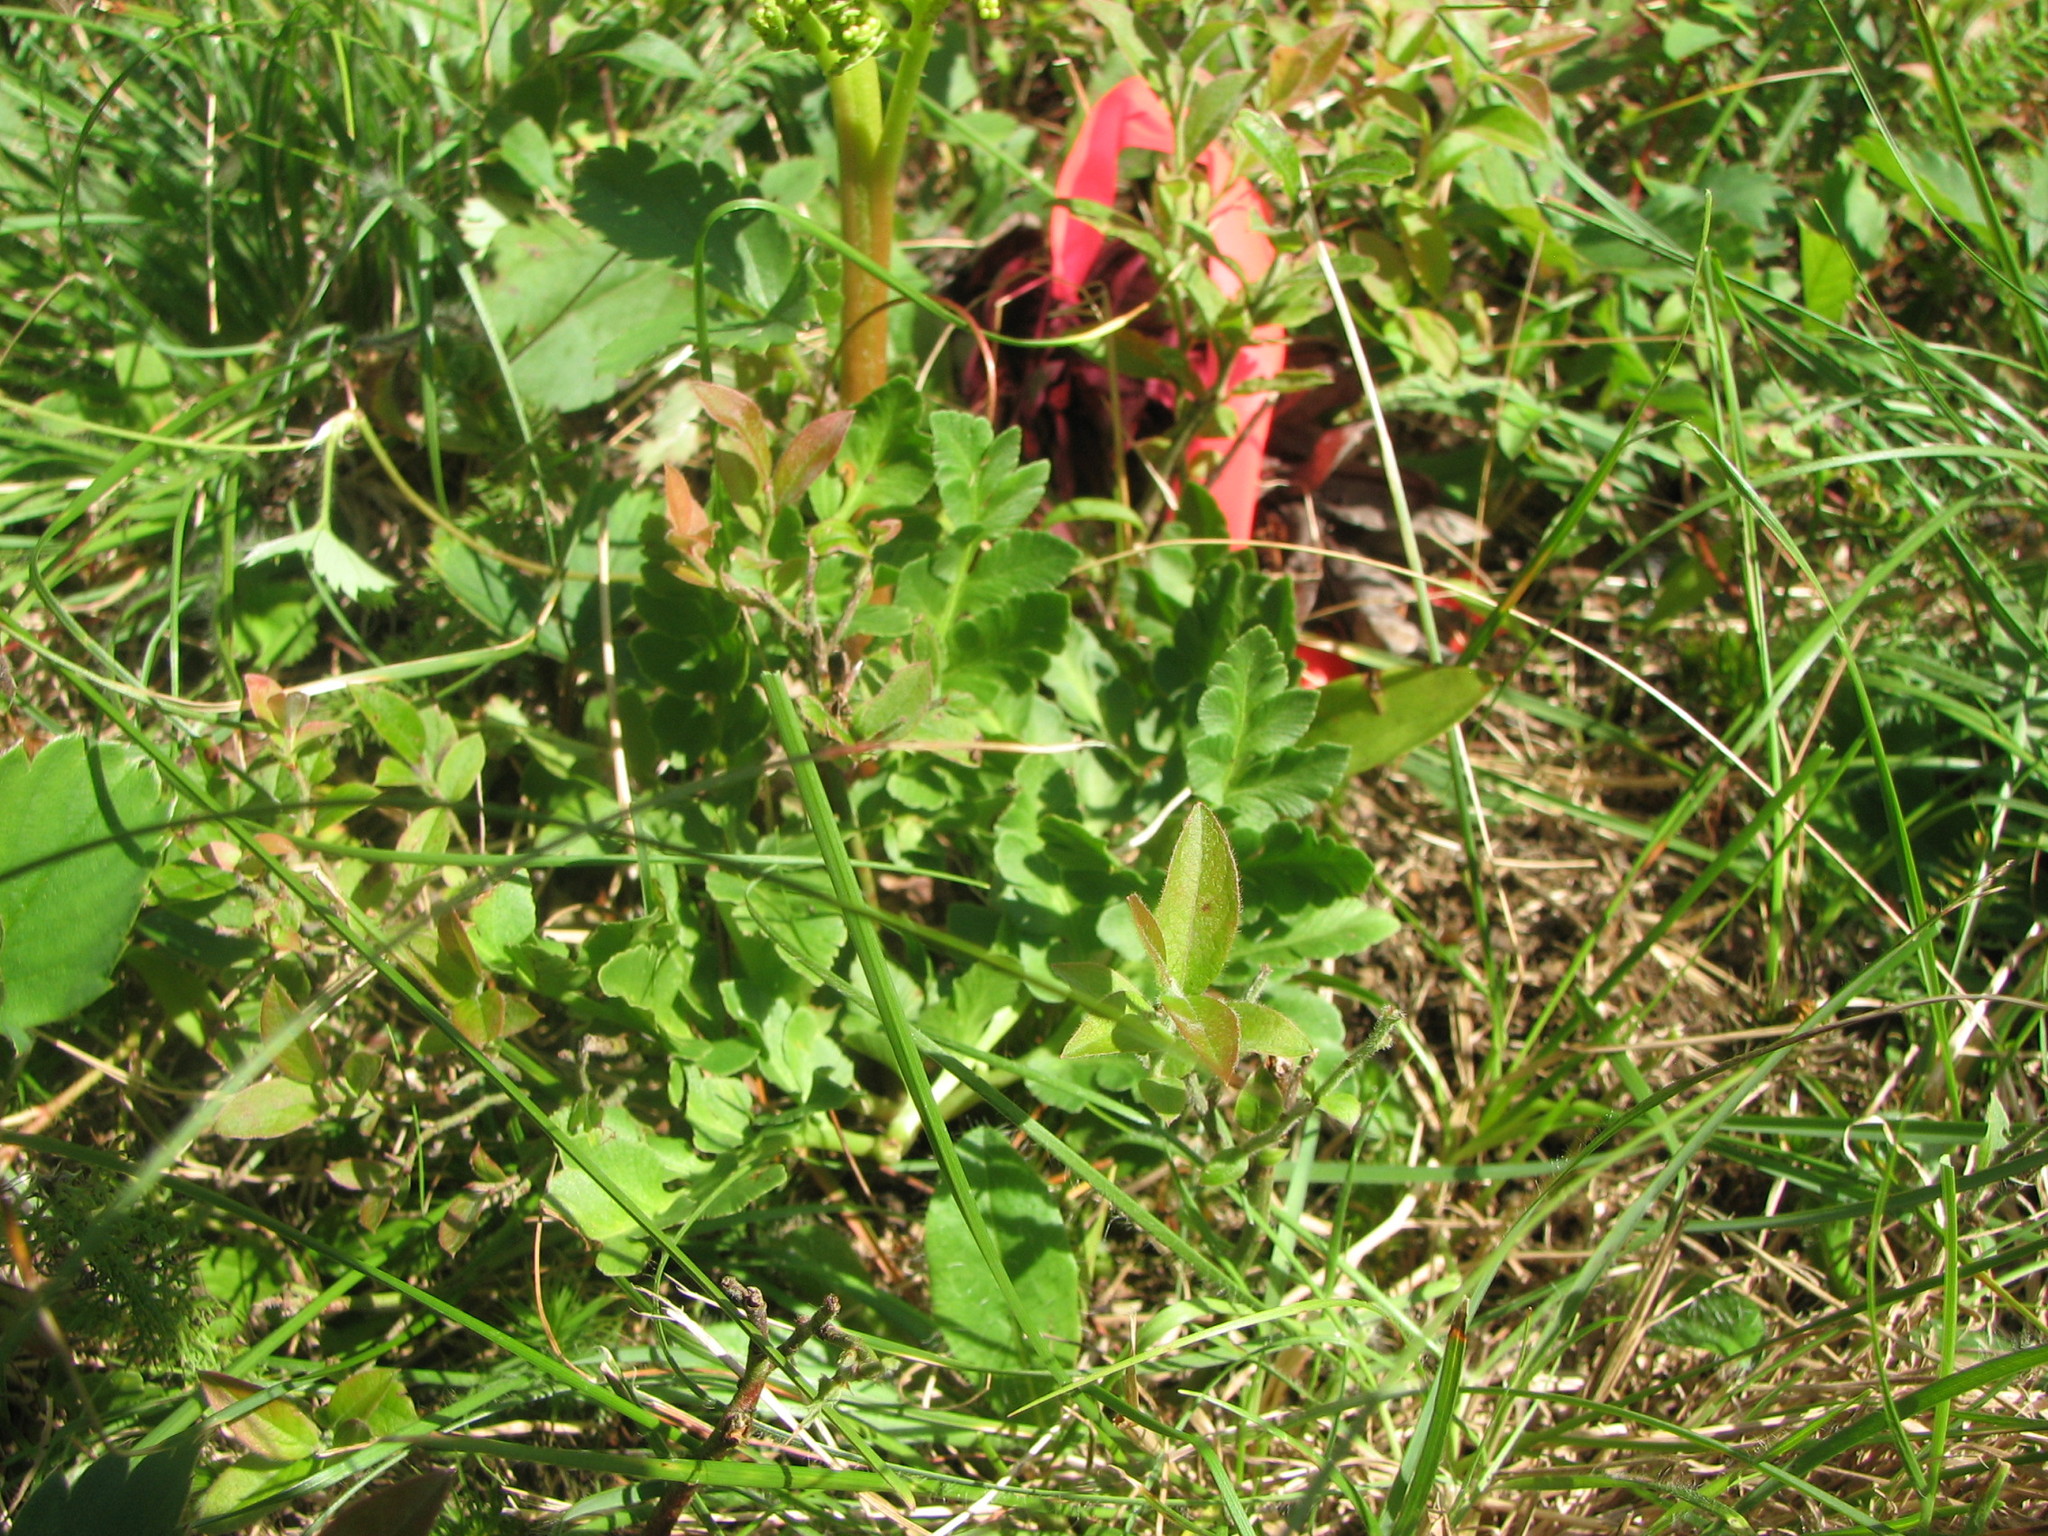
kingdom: Plantae
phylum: Tracheophyta
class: Polypodiopsida
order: Ophioglossales
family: Ophioglossaceae
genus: Sceptridium
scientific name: Sceptridium multifidum
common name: Leathery grape fern
